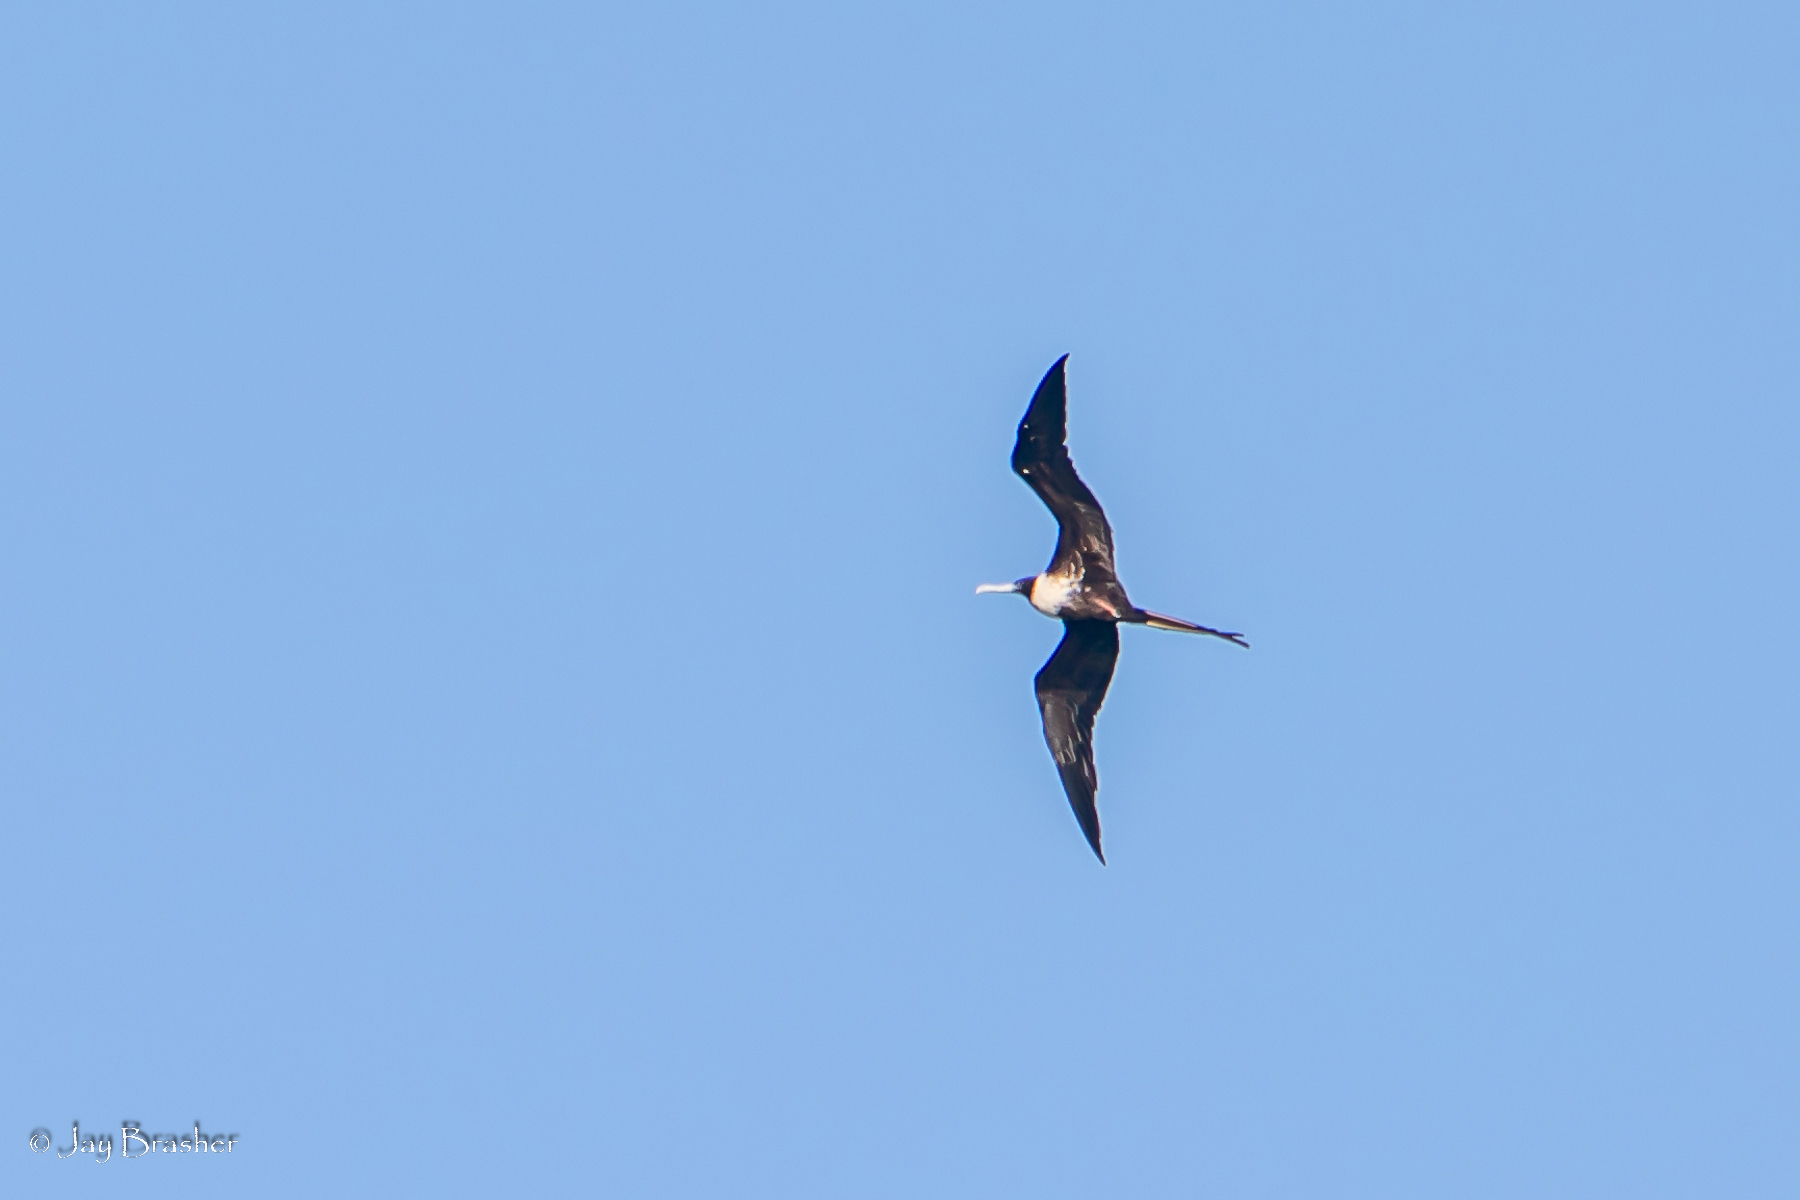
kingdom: Animalia
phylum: Chordata
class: Aves
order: Suliformes
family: Fregatidae
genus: Fregata
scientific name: Fregata magnificens
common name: Magnificent frigatebird
